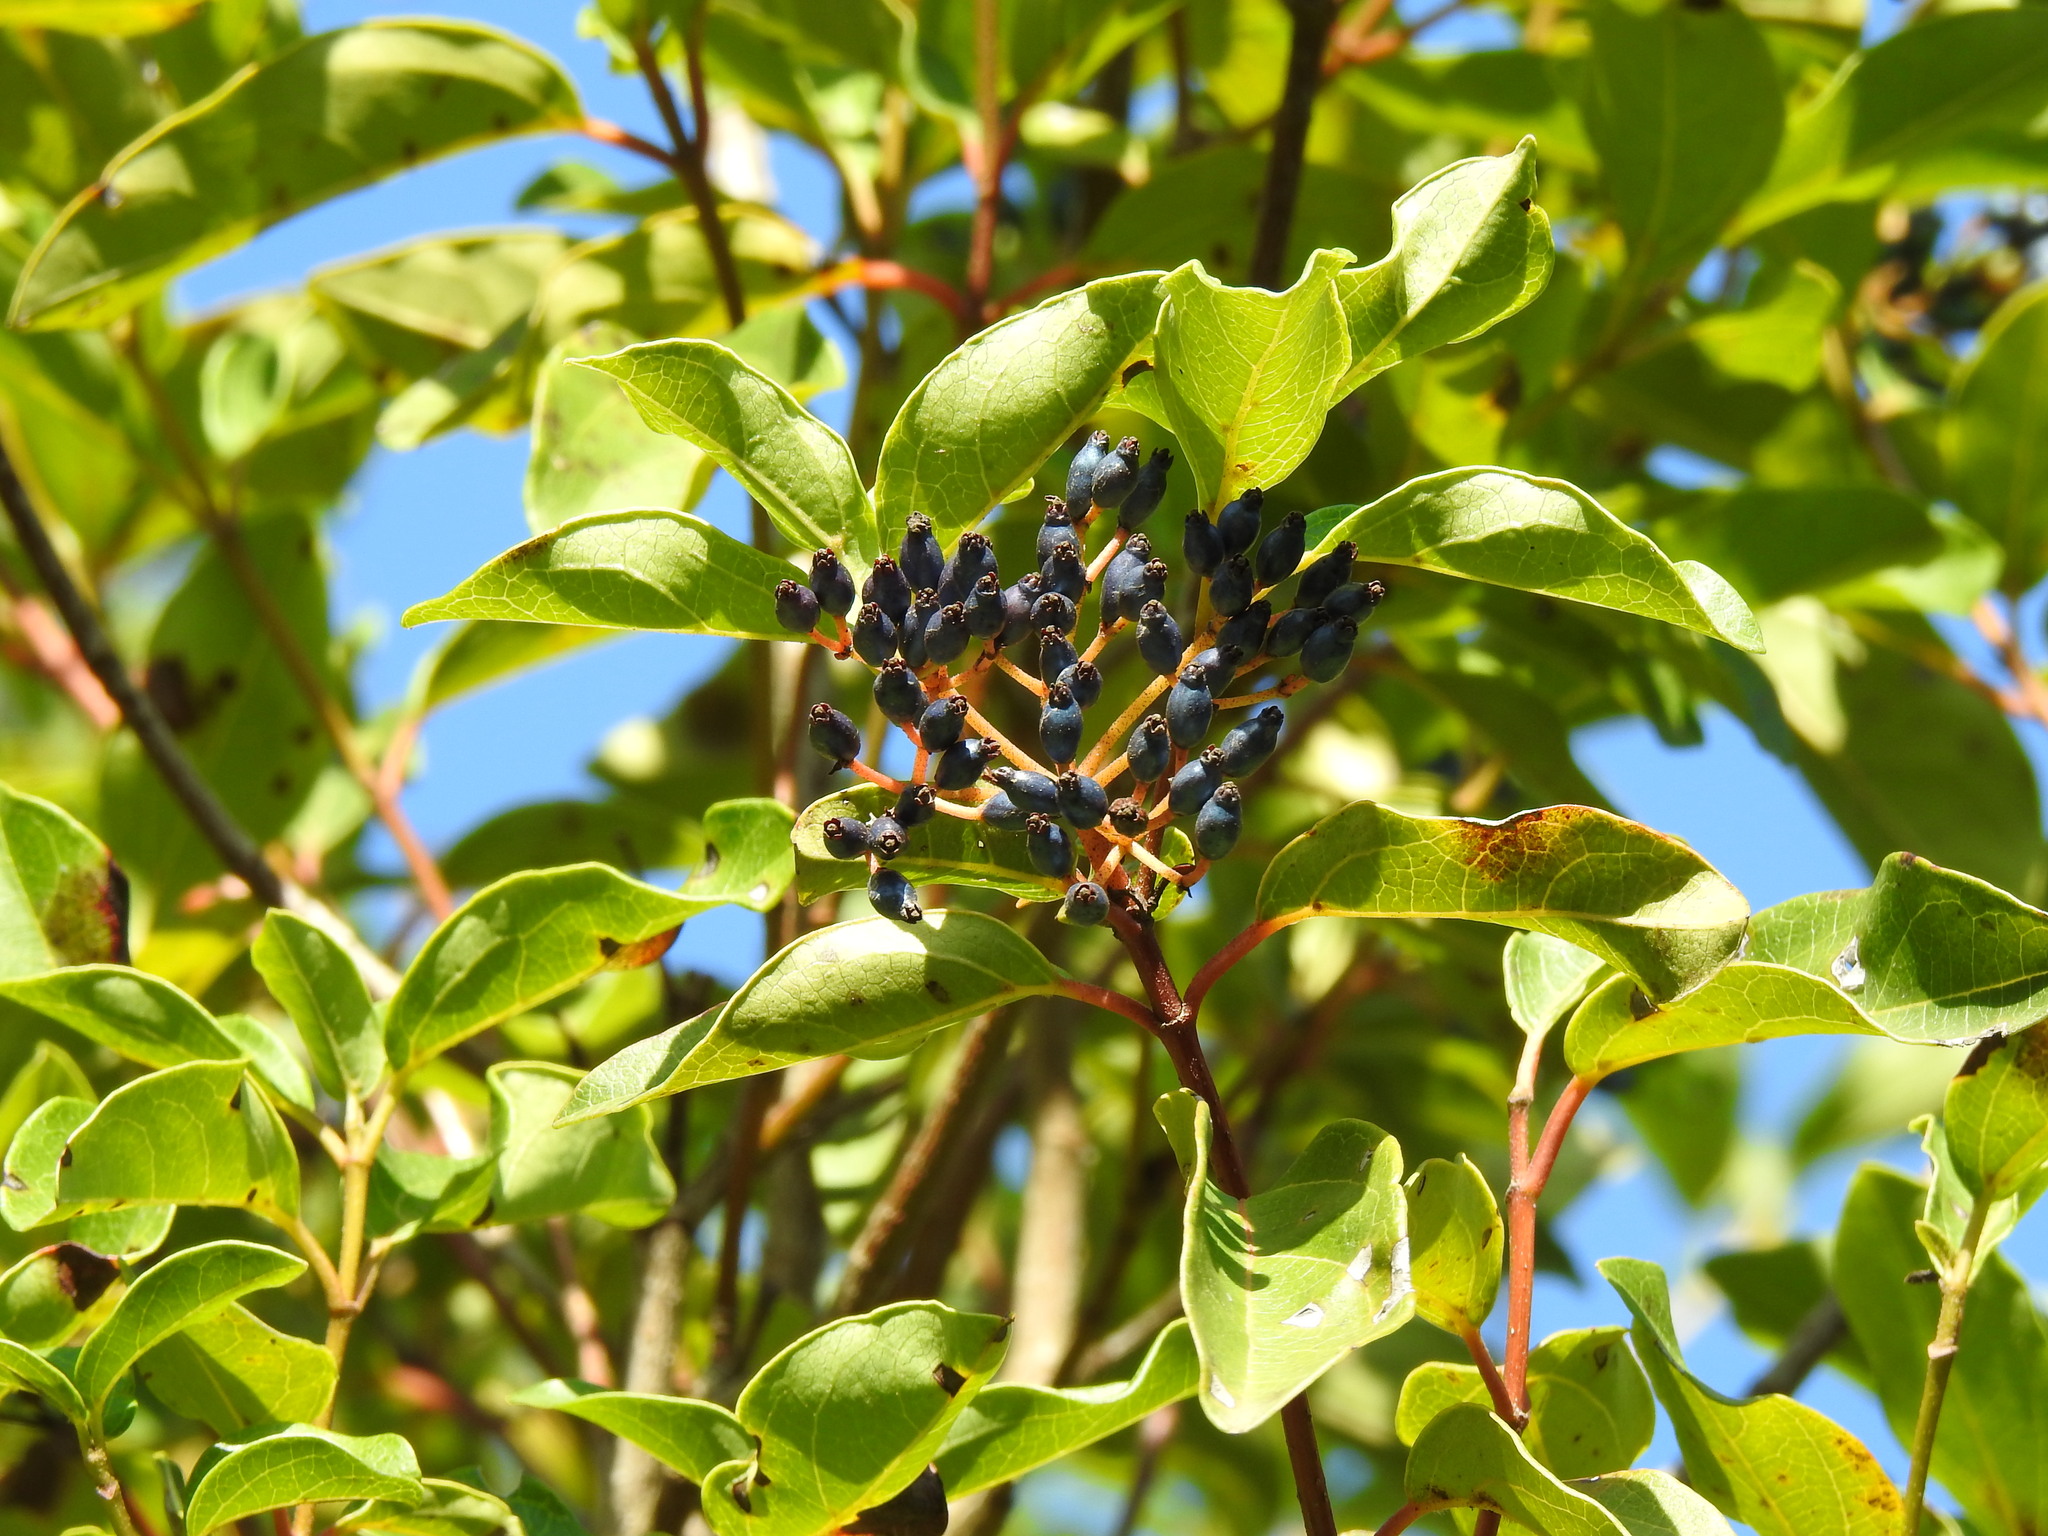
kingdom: Plantae
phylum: Tracheophyta
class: Magnoliopsida
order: Dipsacales
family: Viburnaceae
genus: Viburnum
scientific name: Viburnum tinus
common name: Laurustinus
